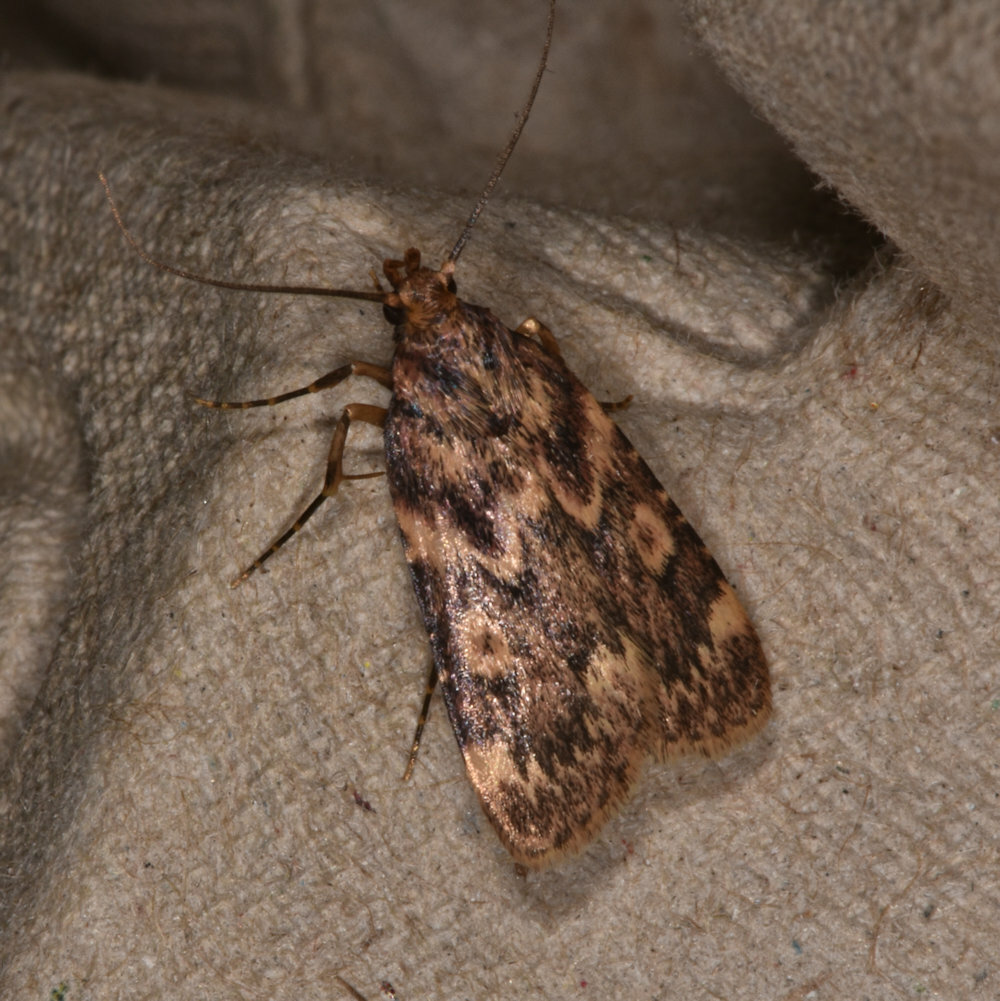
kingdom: Animalia
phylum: Arthropoda
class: Insecta
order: Lepidoptera
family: Pyralidae
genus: Aglossa
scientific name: Aglossa cuprina
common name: Grease moth
